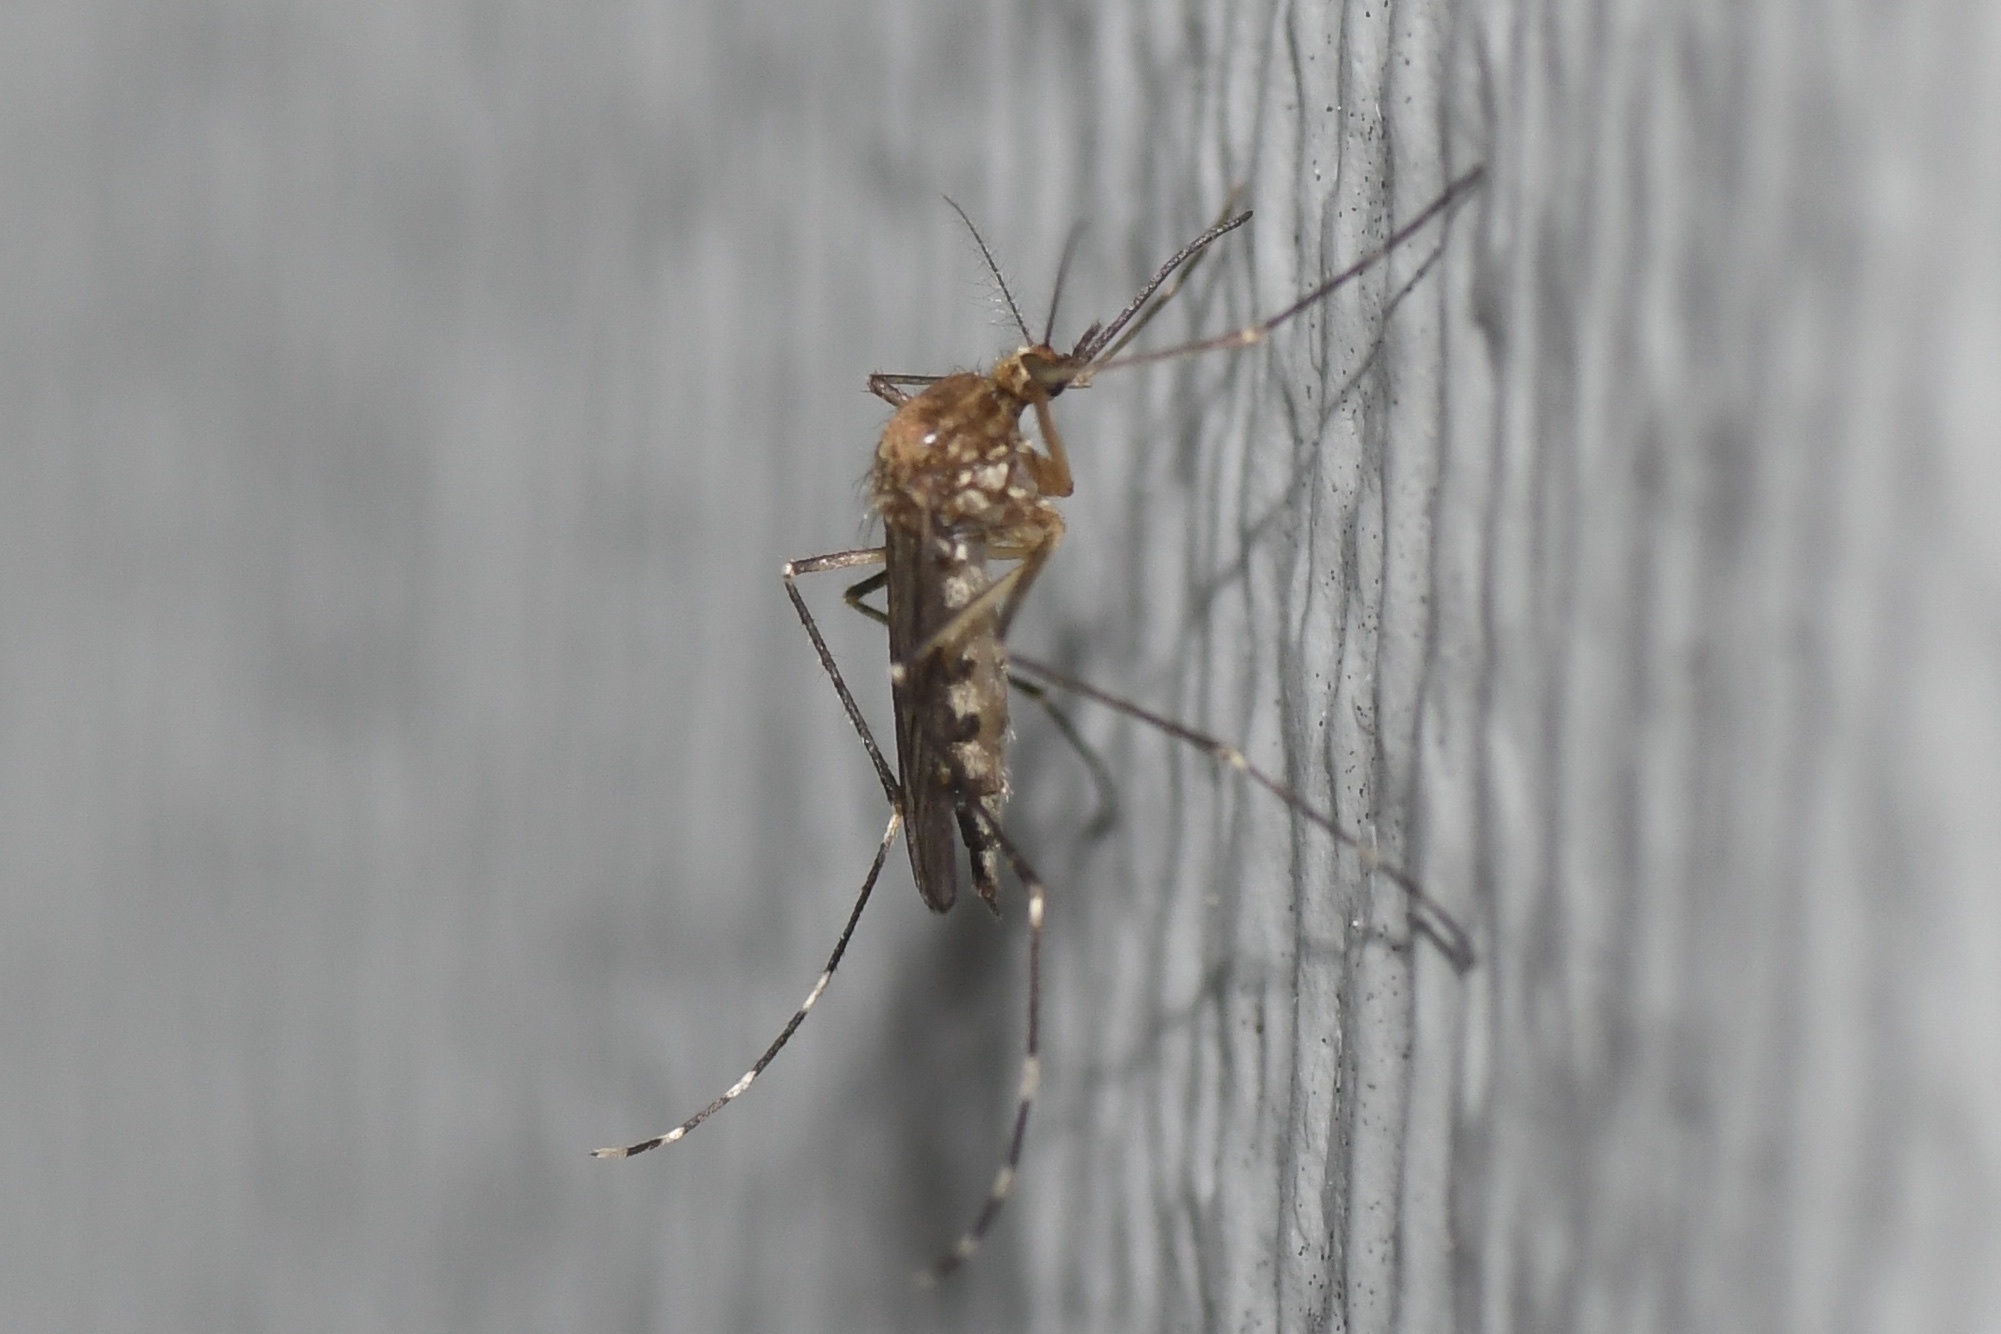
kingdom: Animalia
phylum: Arthropoda
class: Insecta
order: Diptera
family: Culicidae
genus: Aedes
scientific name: Aedes canadensis
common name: Woodland pool mosquito
